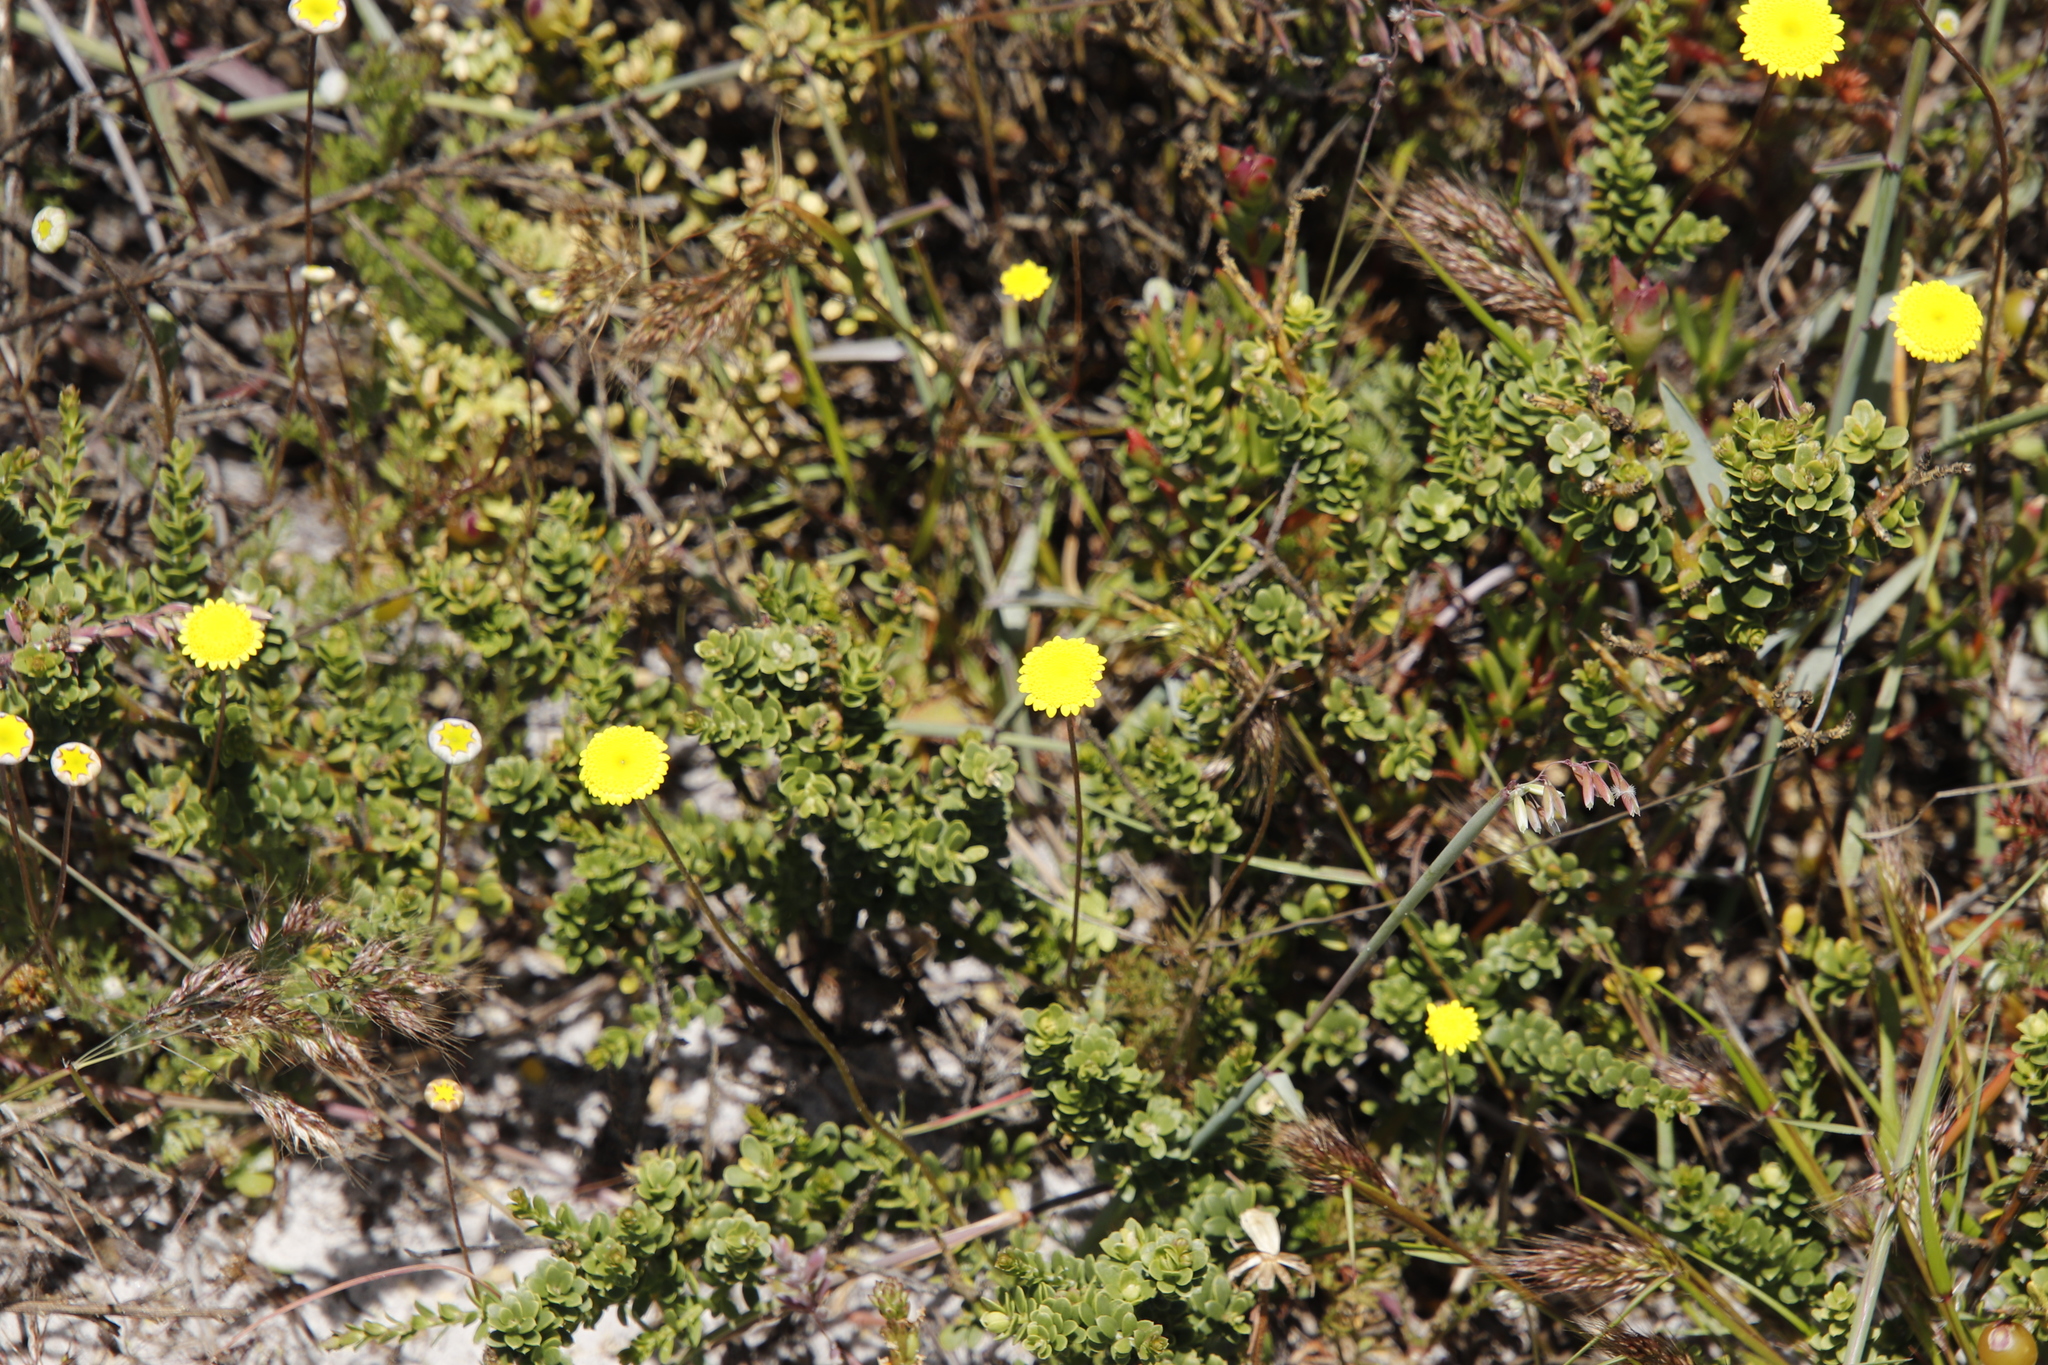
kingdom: Plantae
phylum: Tracheophyta
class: Magnoliopsida
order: Asterales
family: Asteraceae
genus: Cotula
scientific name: Cotula pruinosa
